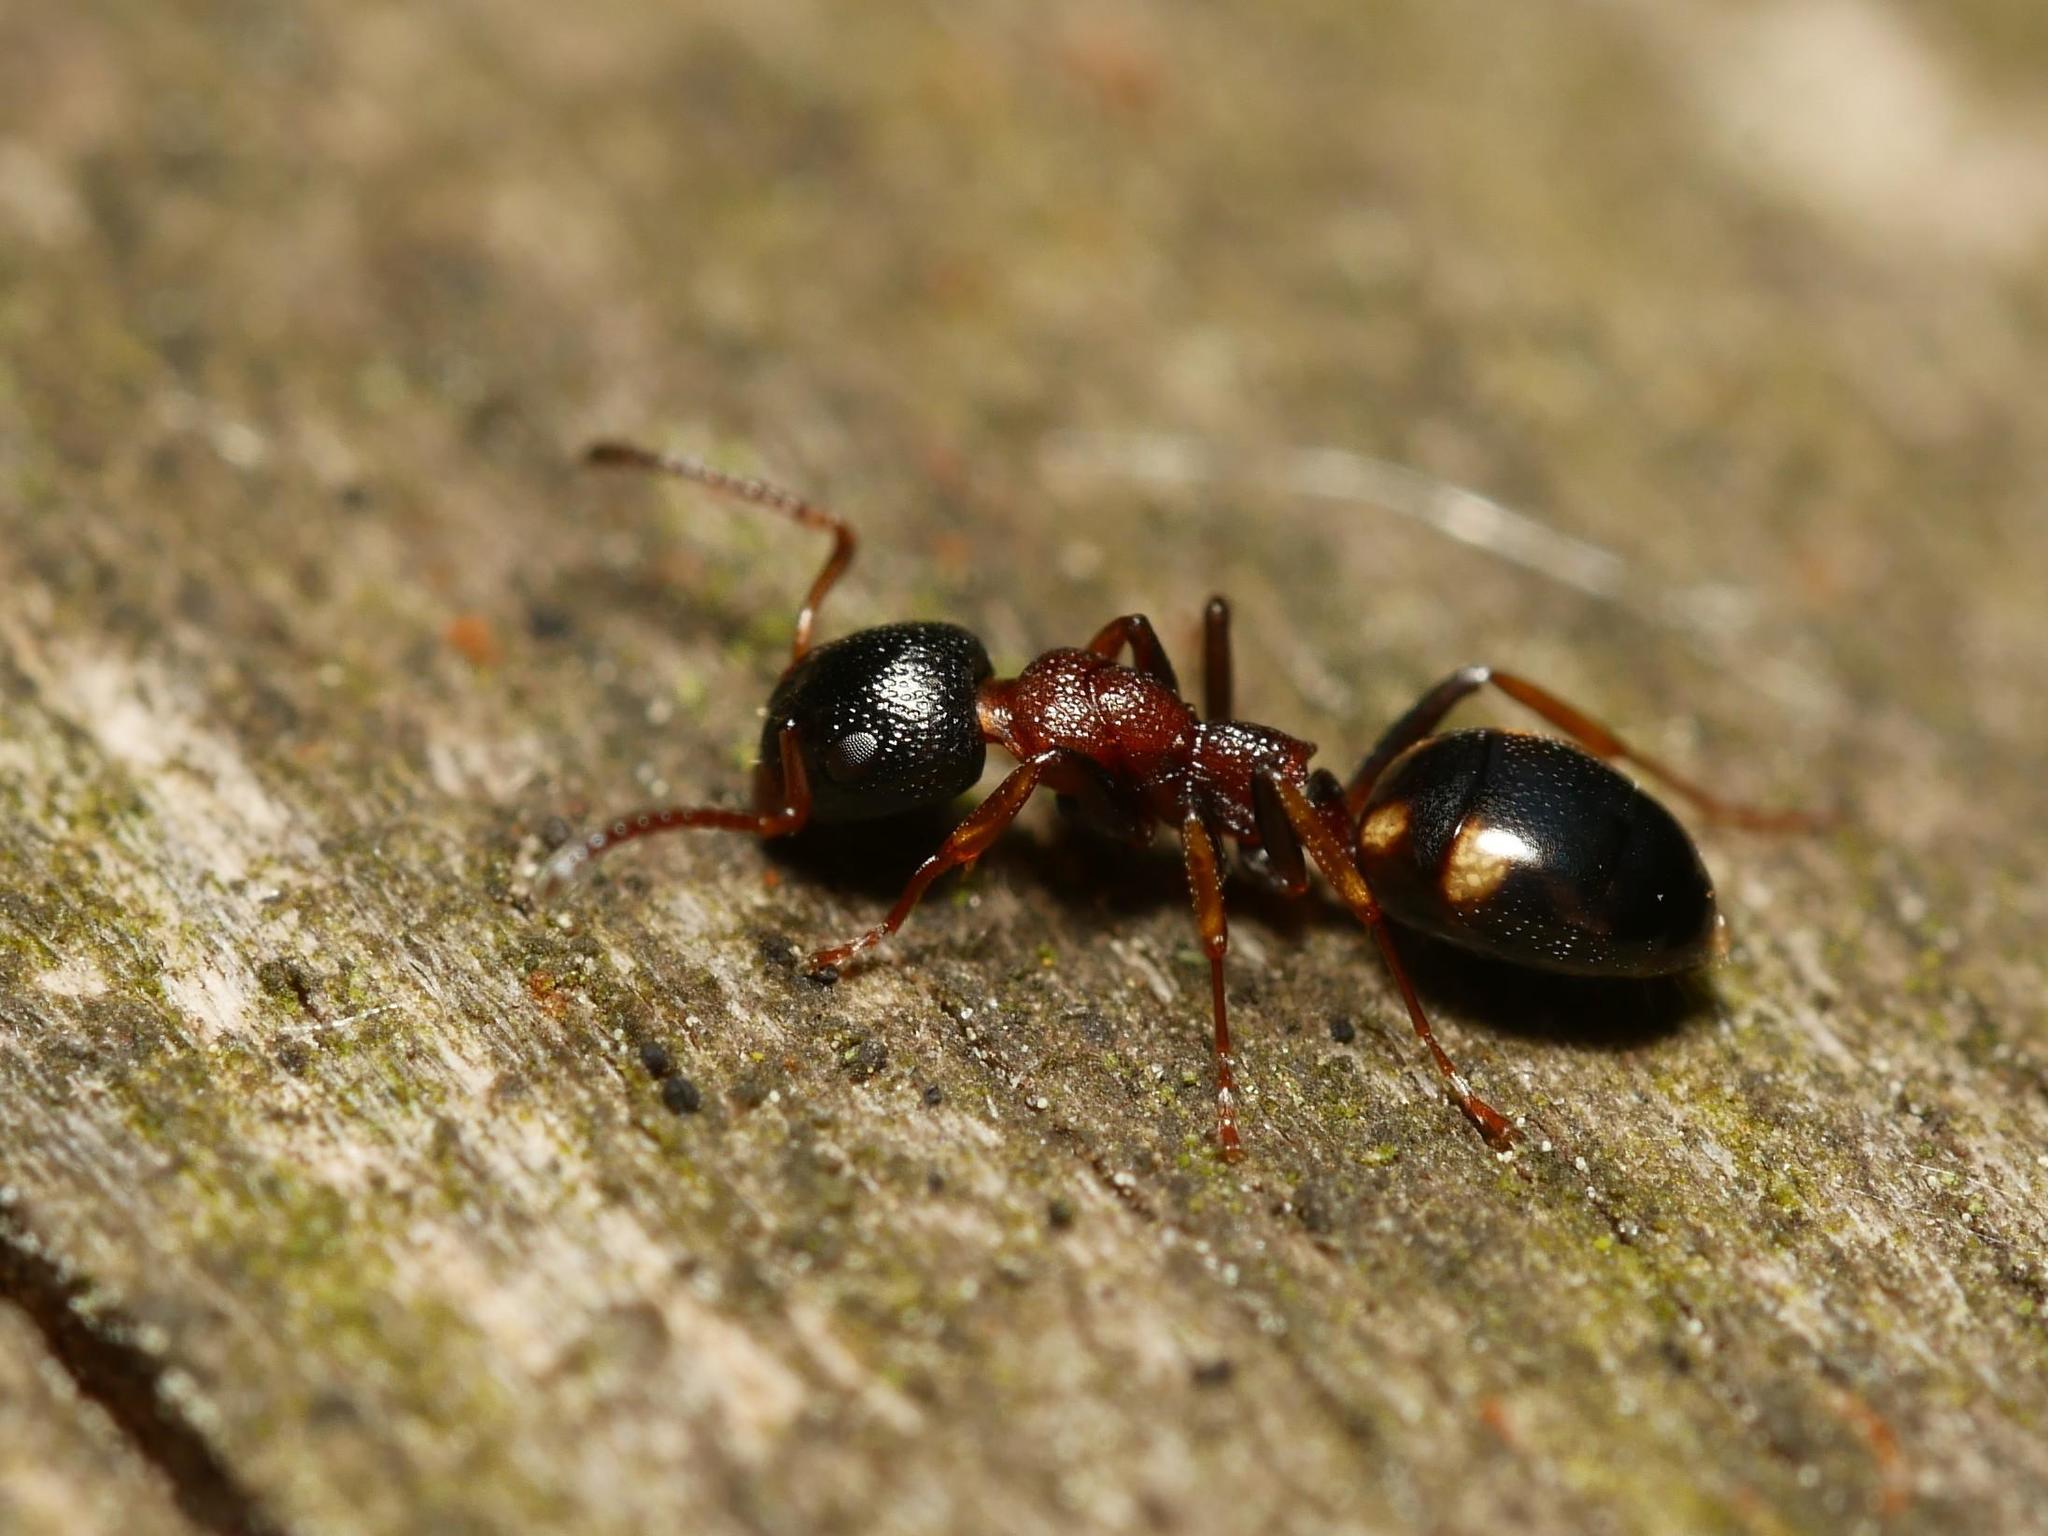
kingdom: Animalia
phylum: Arthropoda
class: Insecta
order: Hymenoptera
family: Formicidae
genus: Dolichoderus
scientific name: Dolichoderus quadripunctatus
